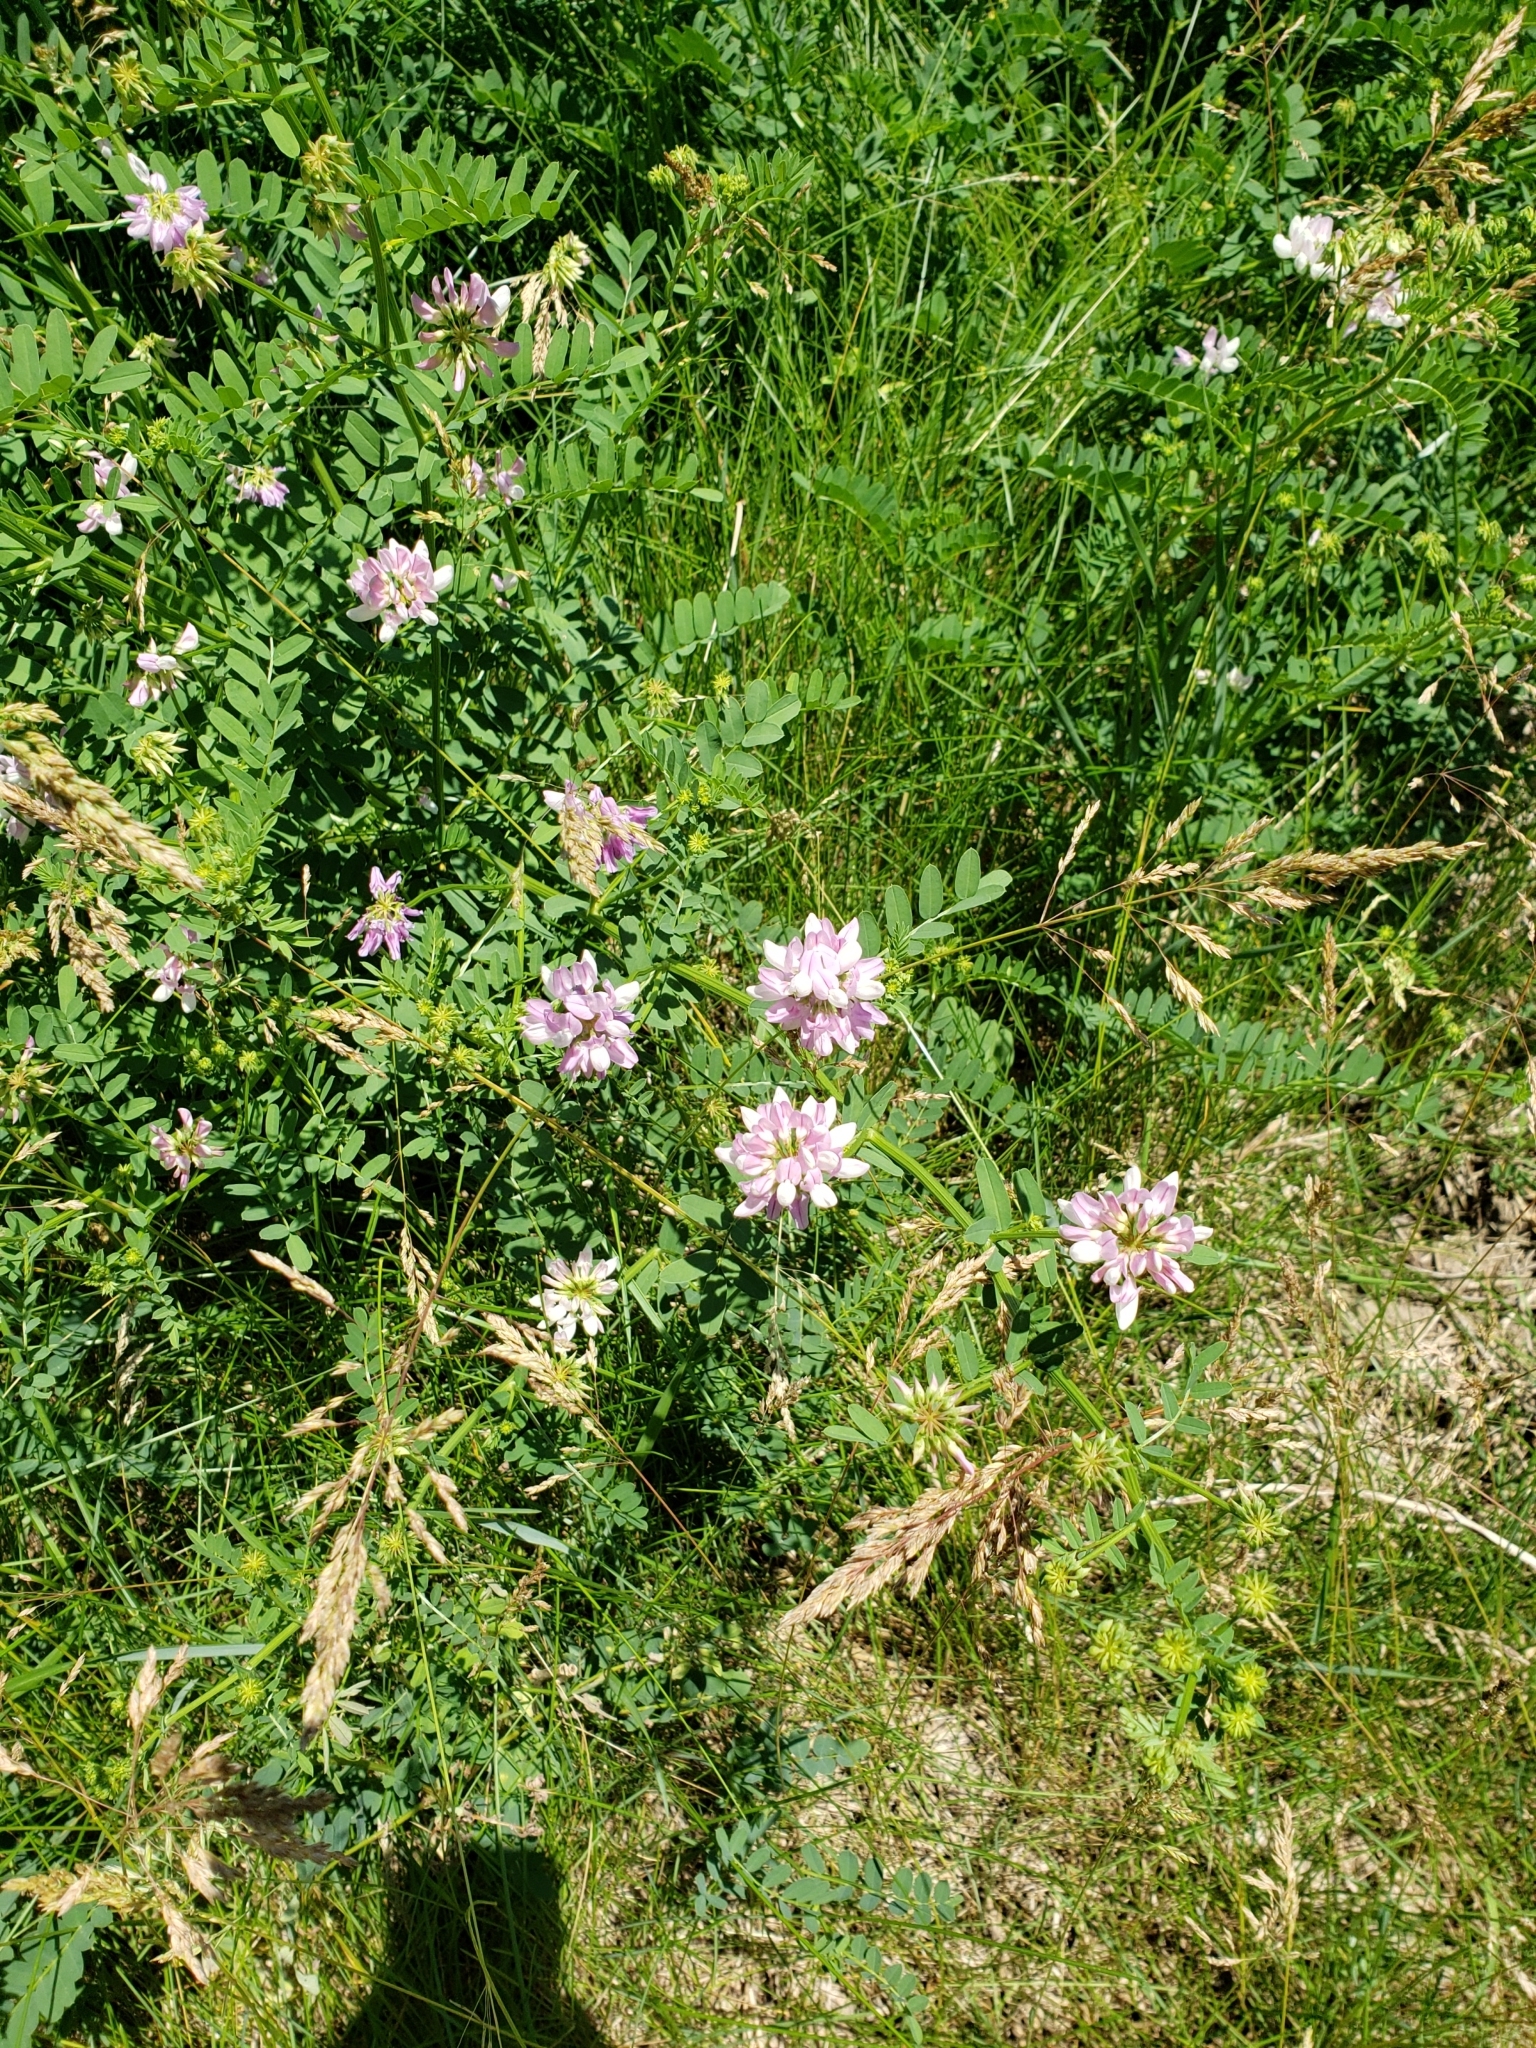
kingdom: Plantae
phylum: Tracheophyta
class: Magnoliopsida
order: Fabales
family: Fabaceae
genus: Coronilla
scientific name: Coronilla varia
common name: Crownvetch
